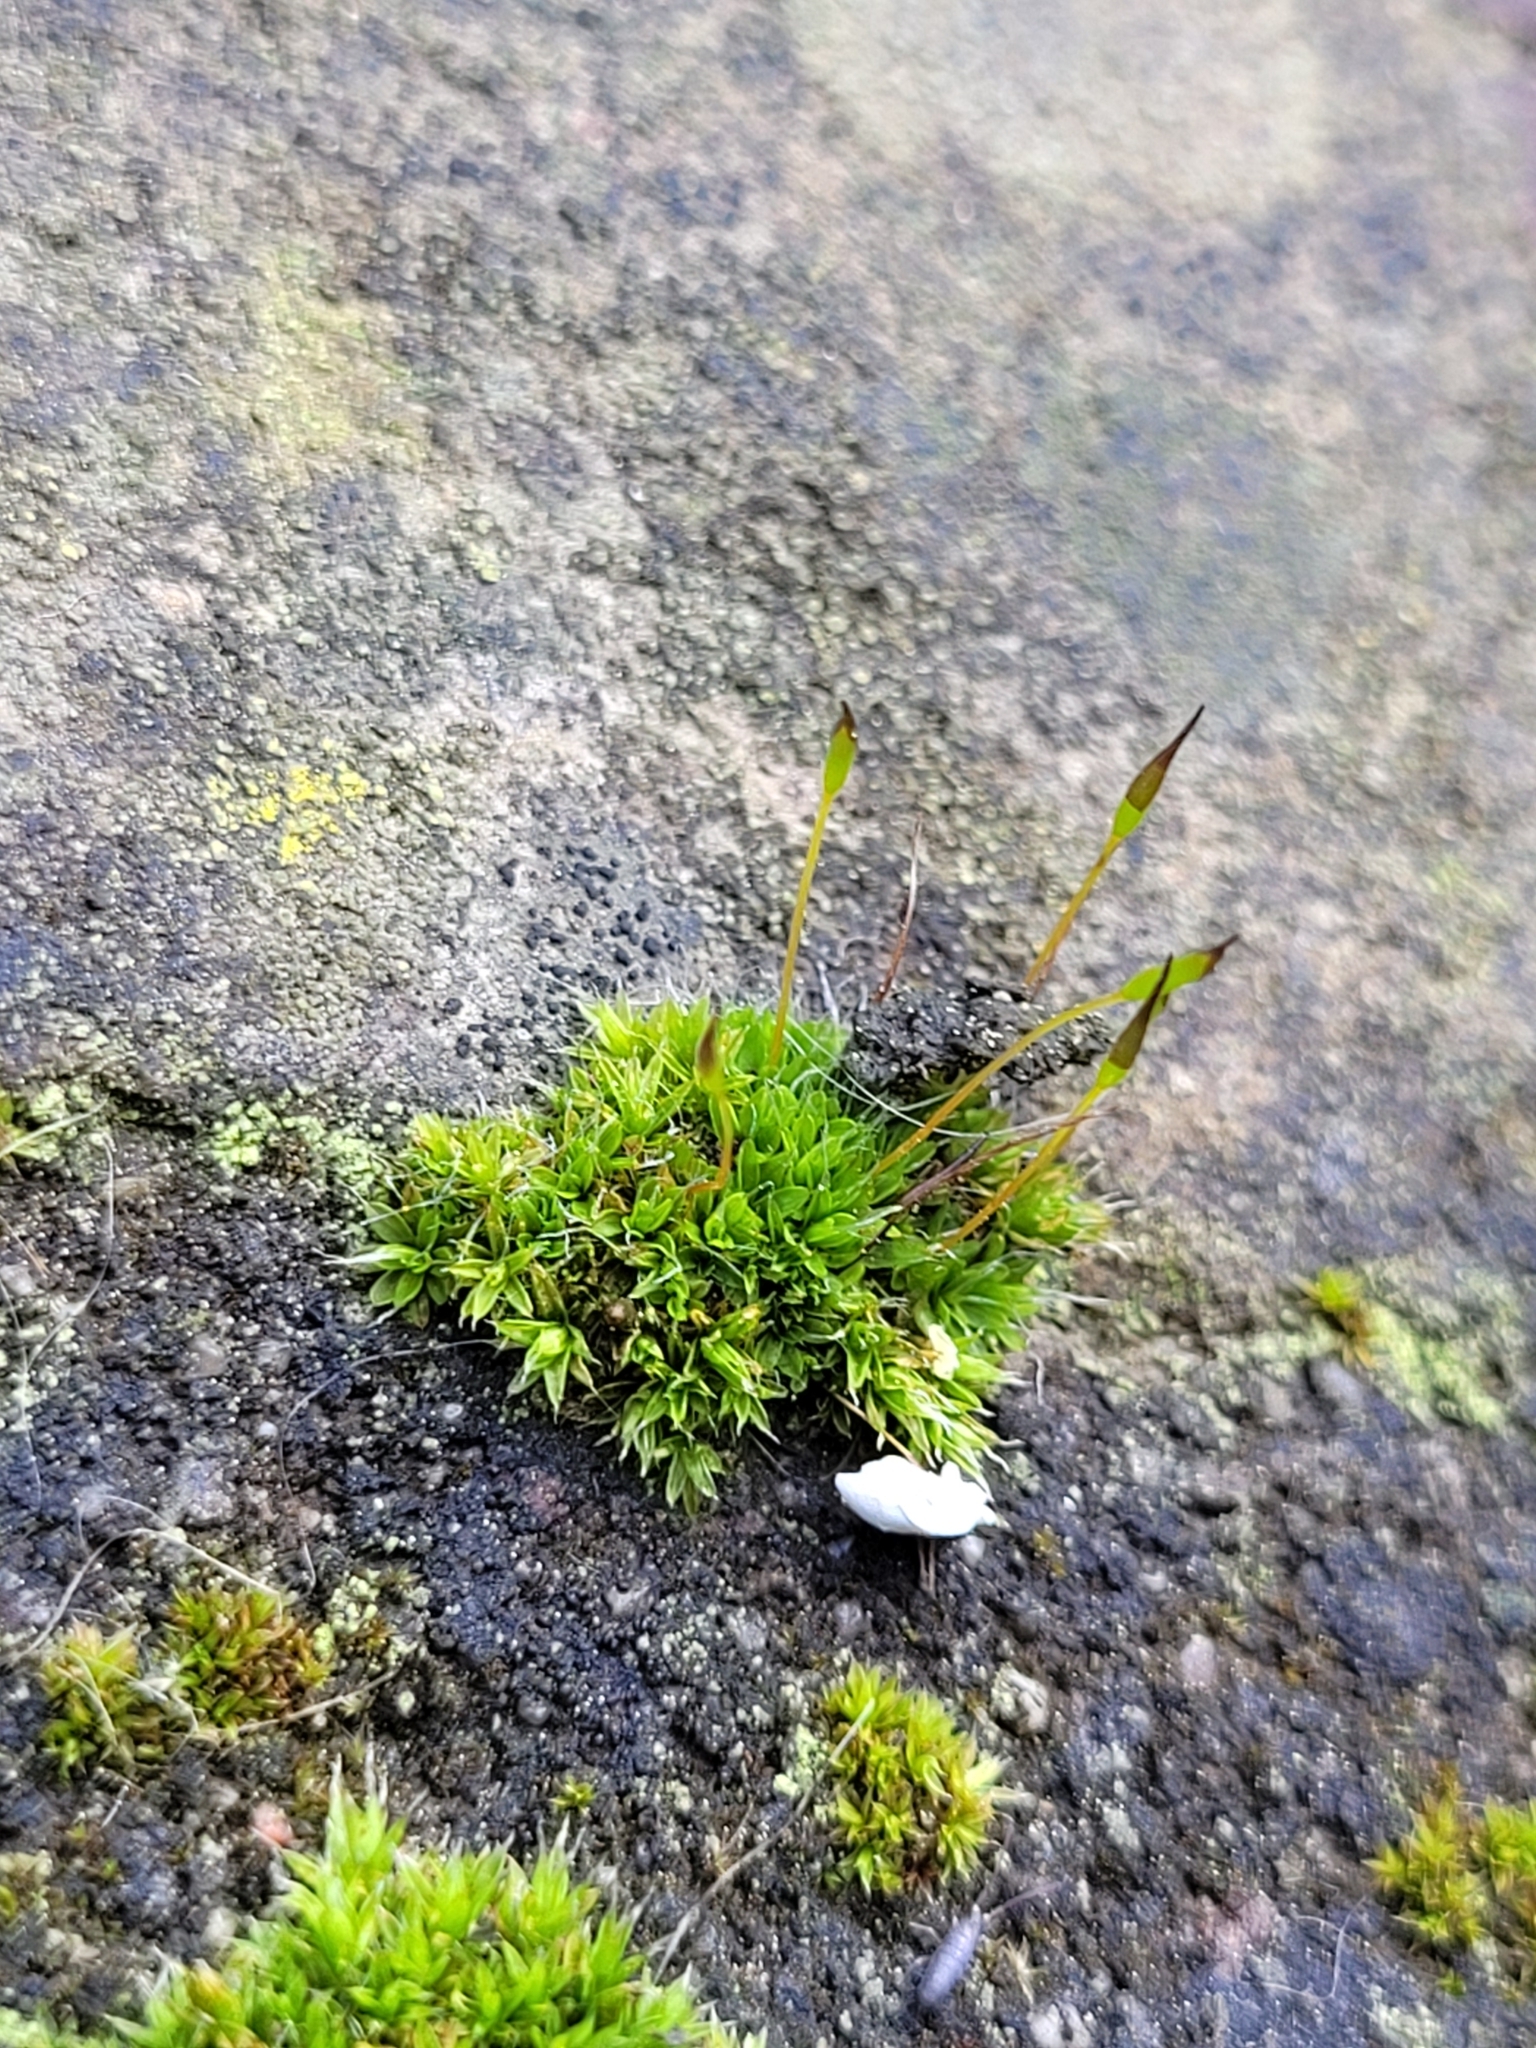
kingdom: Plantae
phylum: Bryophyta
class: Bryopsida
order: Pottiales
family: Pottiaceae
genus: Tortula
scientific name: Tortula muralis
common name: Wall screw-moss
